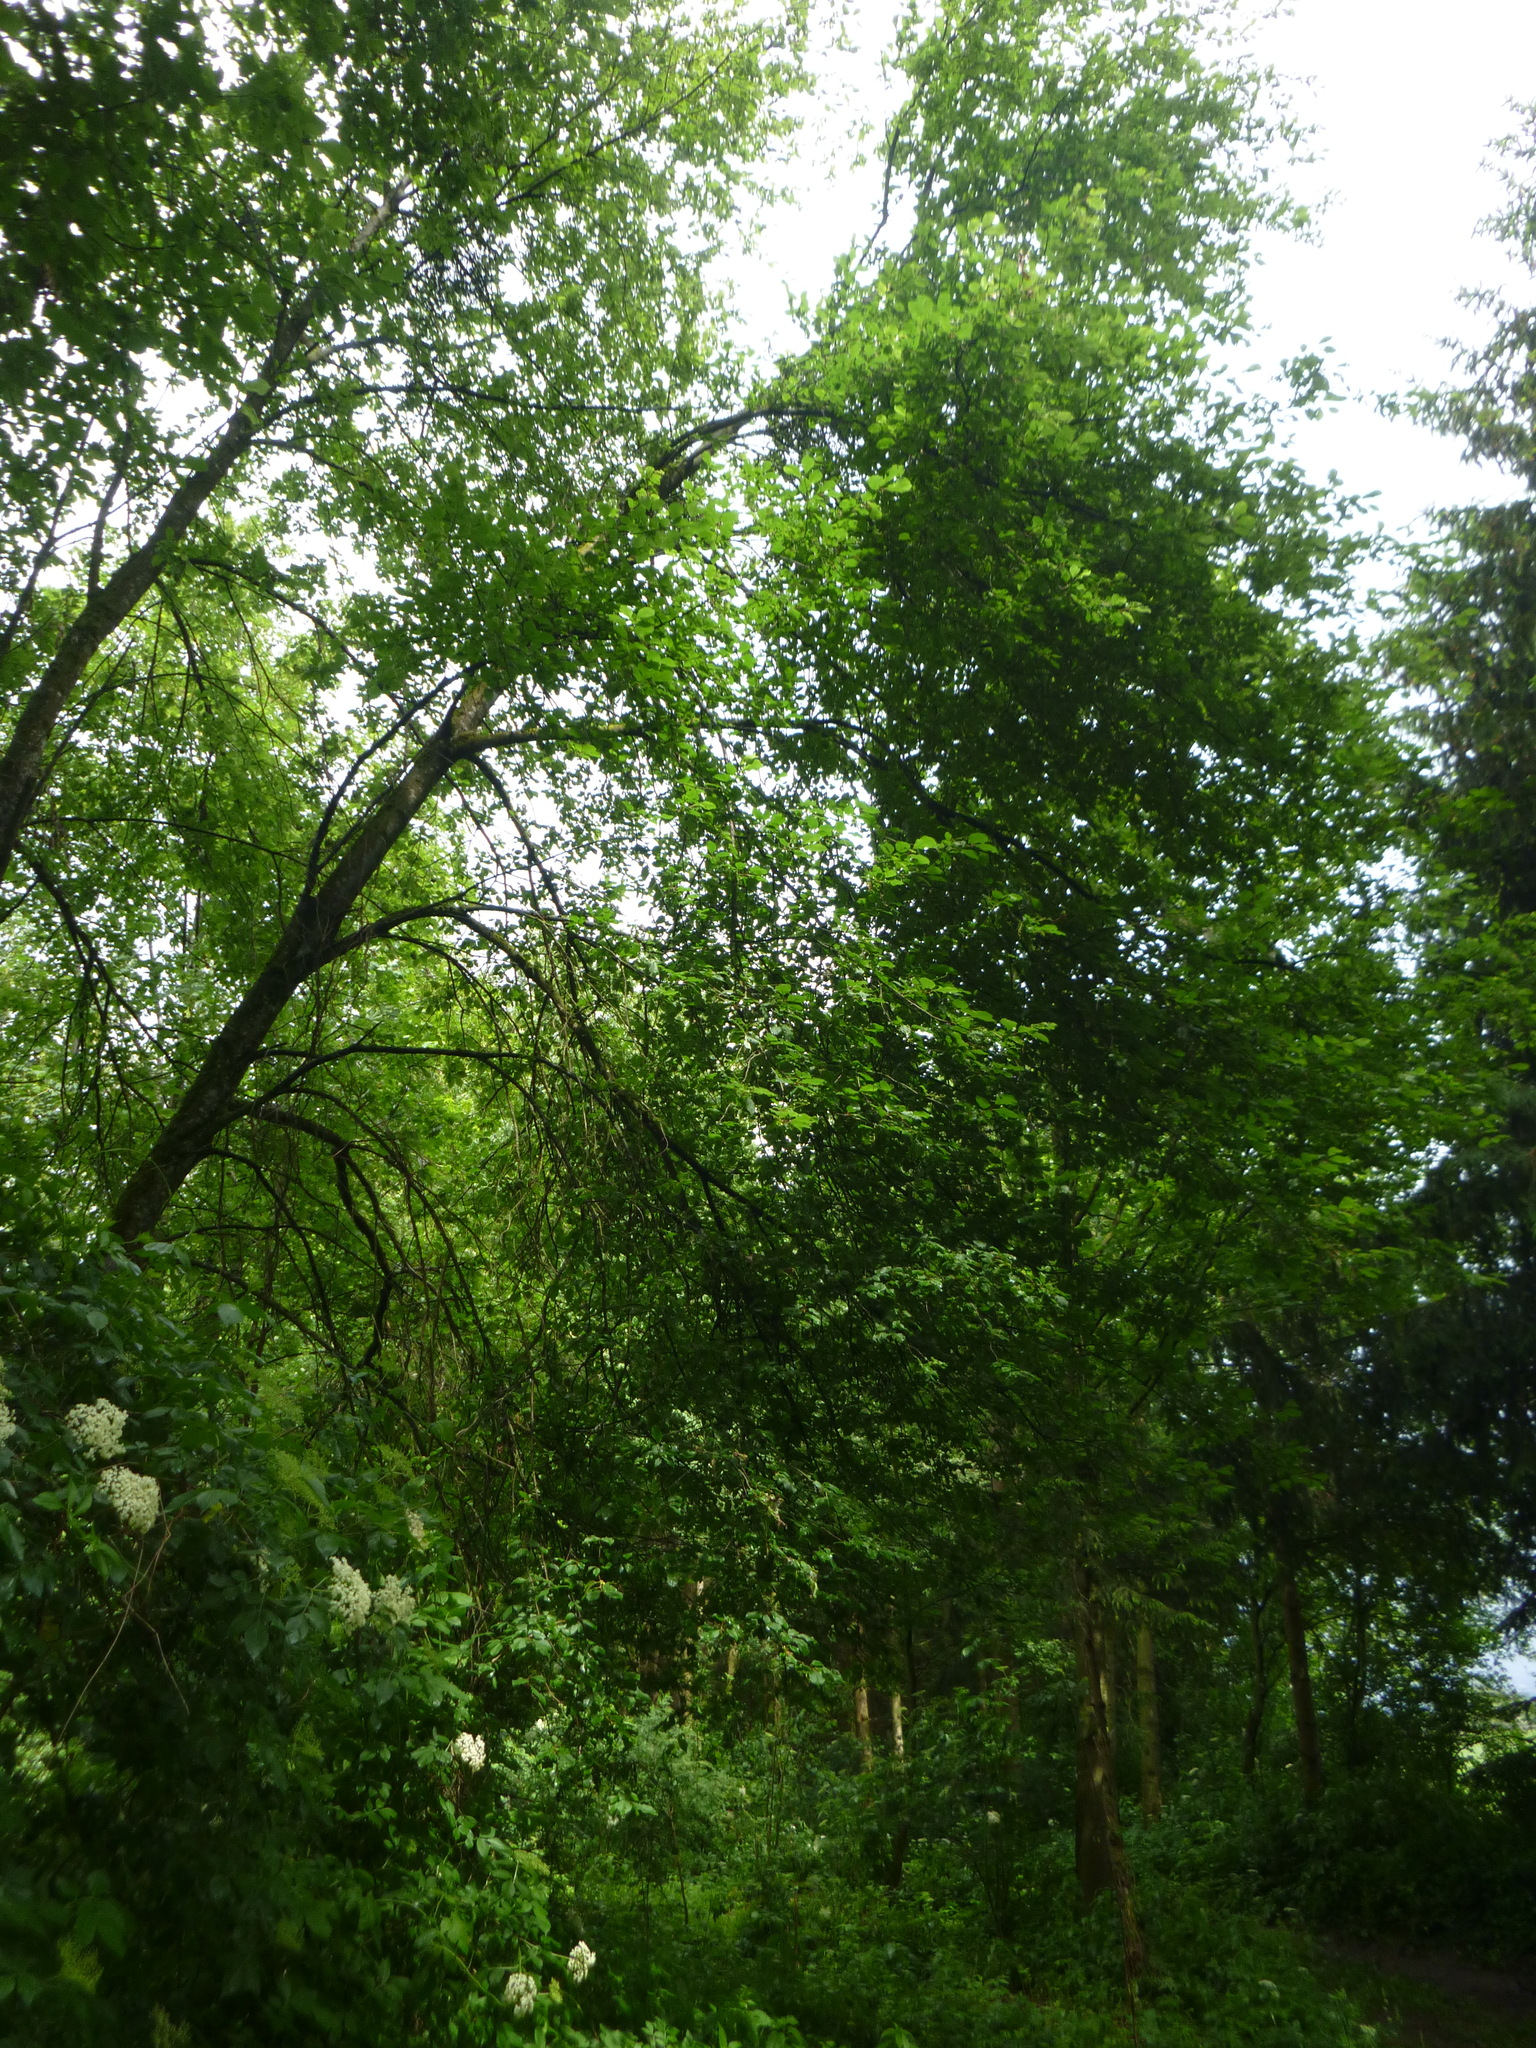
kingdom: Plantae
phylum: Tracheophyta
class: Magnoliopsida
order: Rosales
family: Rosaceae
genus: Prunus
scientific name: Prunus padus
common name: Bird cherry
